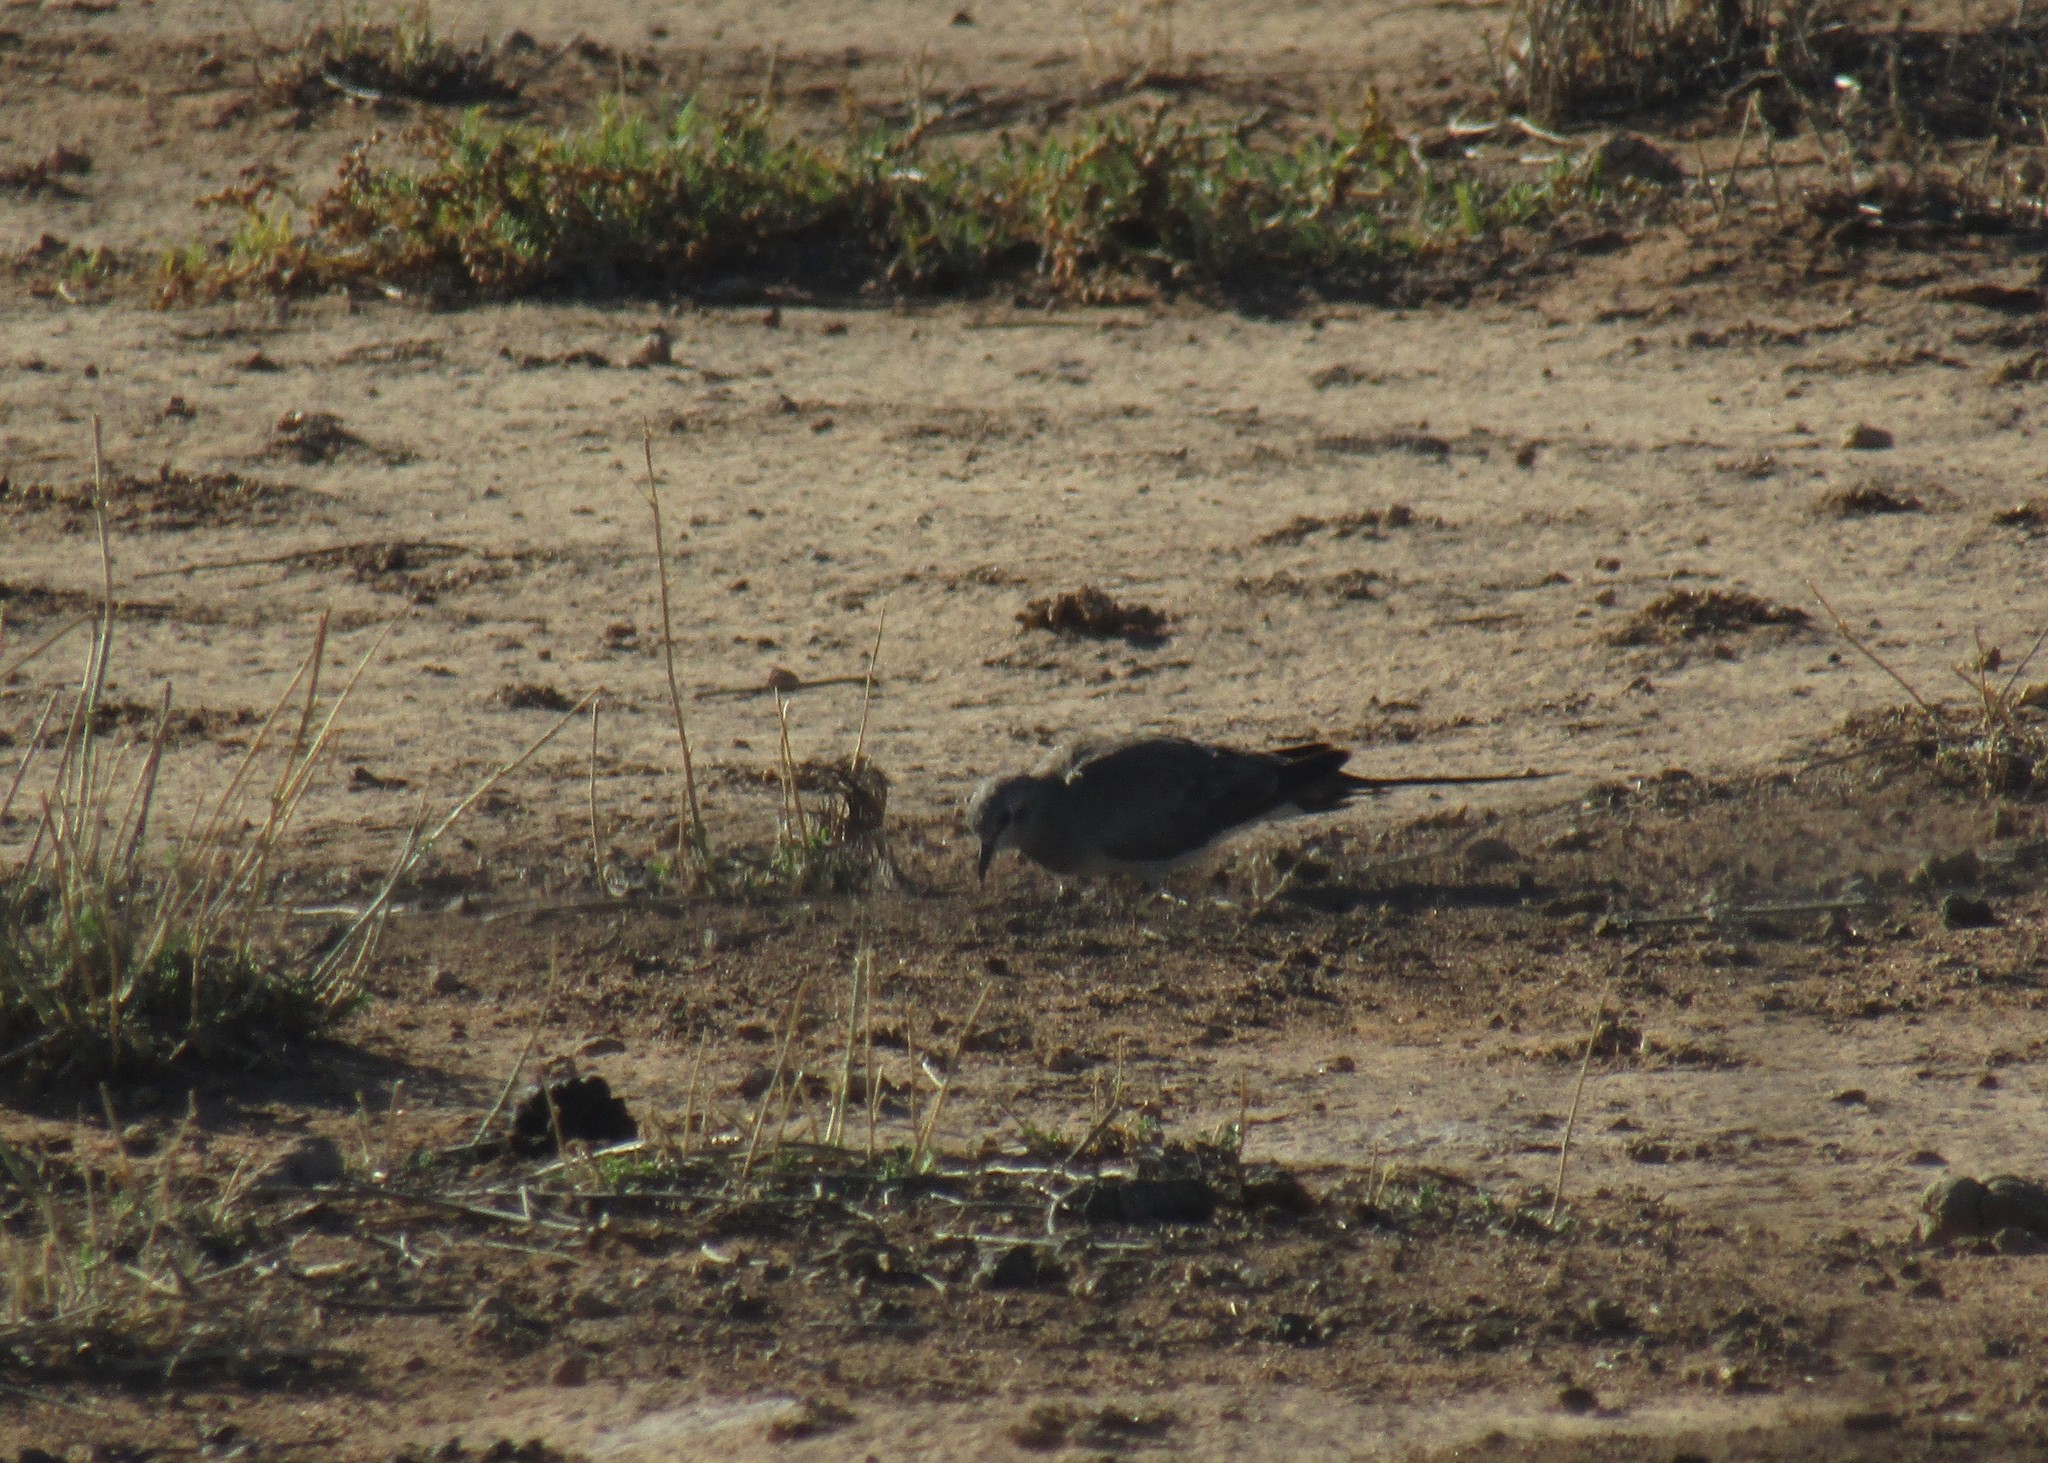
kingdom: Animalia
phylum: Chordata
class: Aves
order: Columbiformes
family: Columbidae
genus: Oena
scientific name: Oena capensis
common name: Namaqua dove
